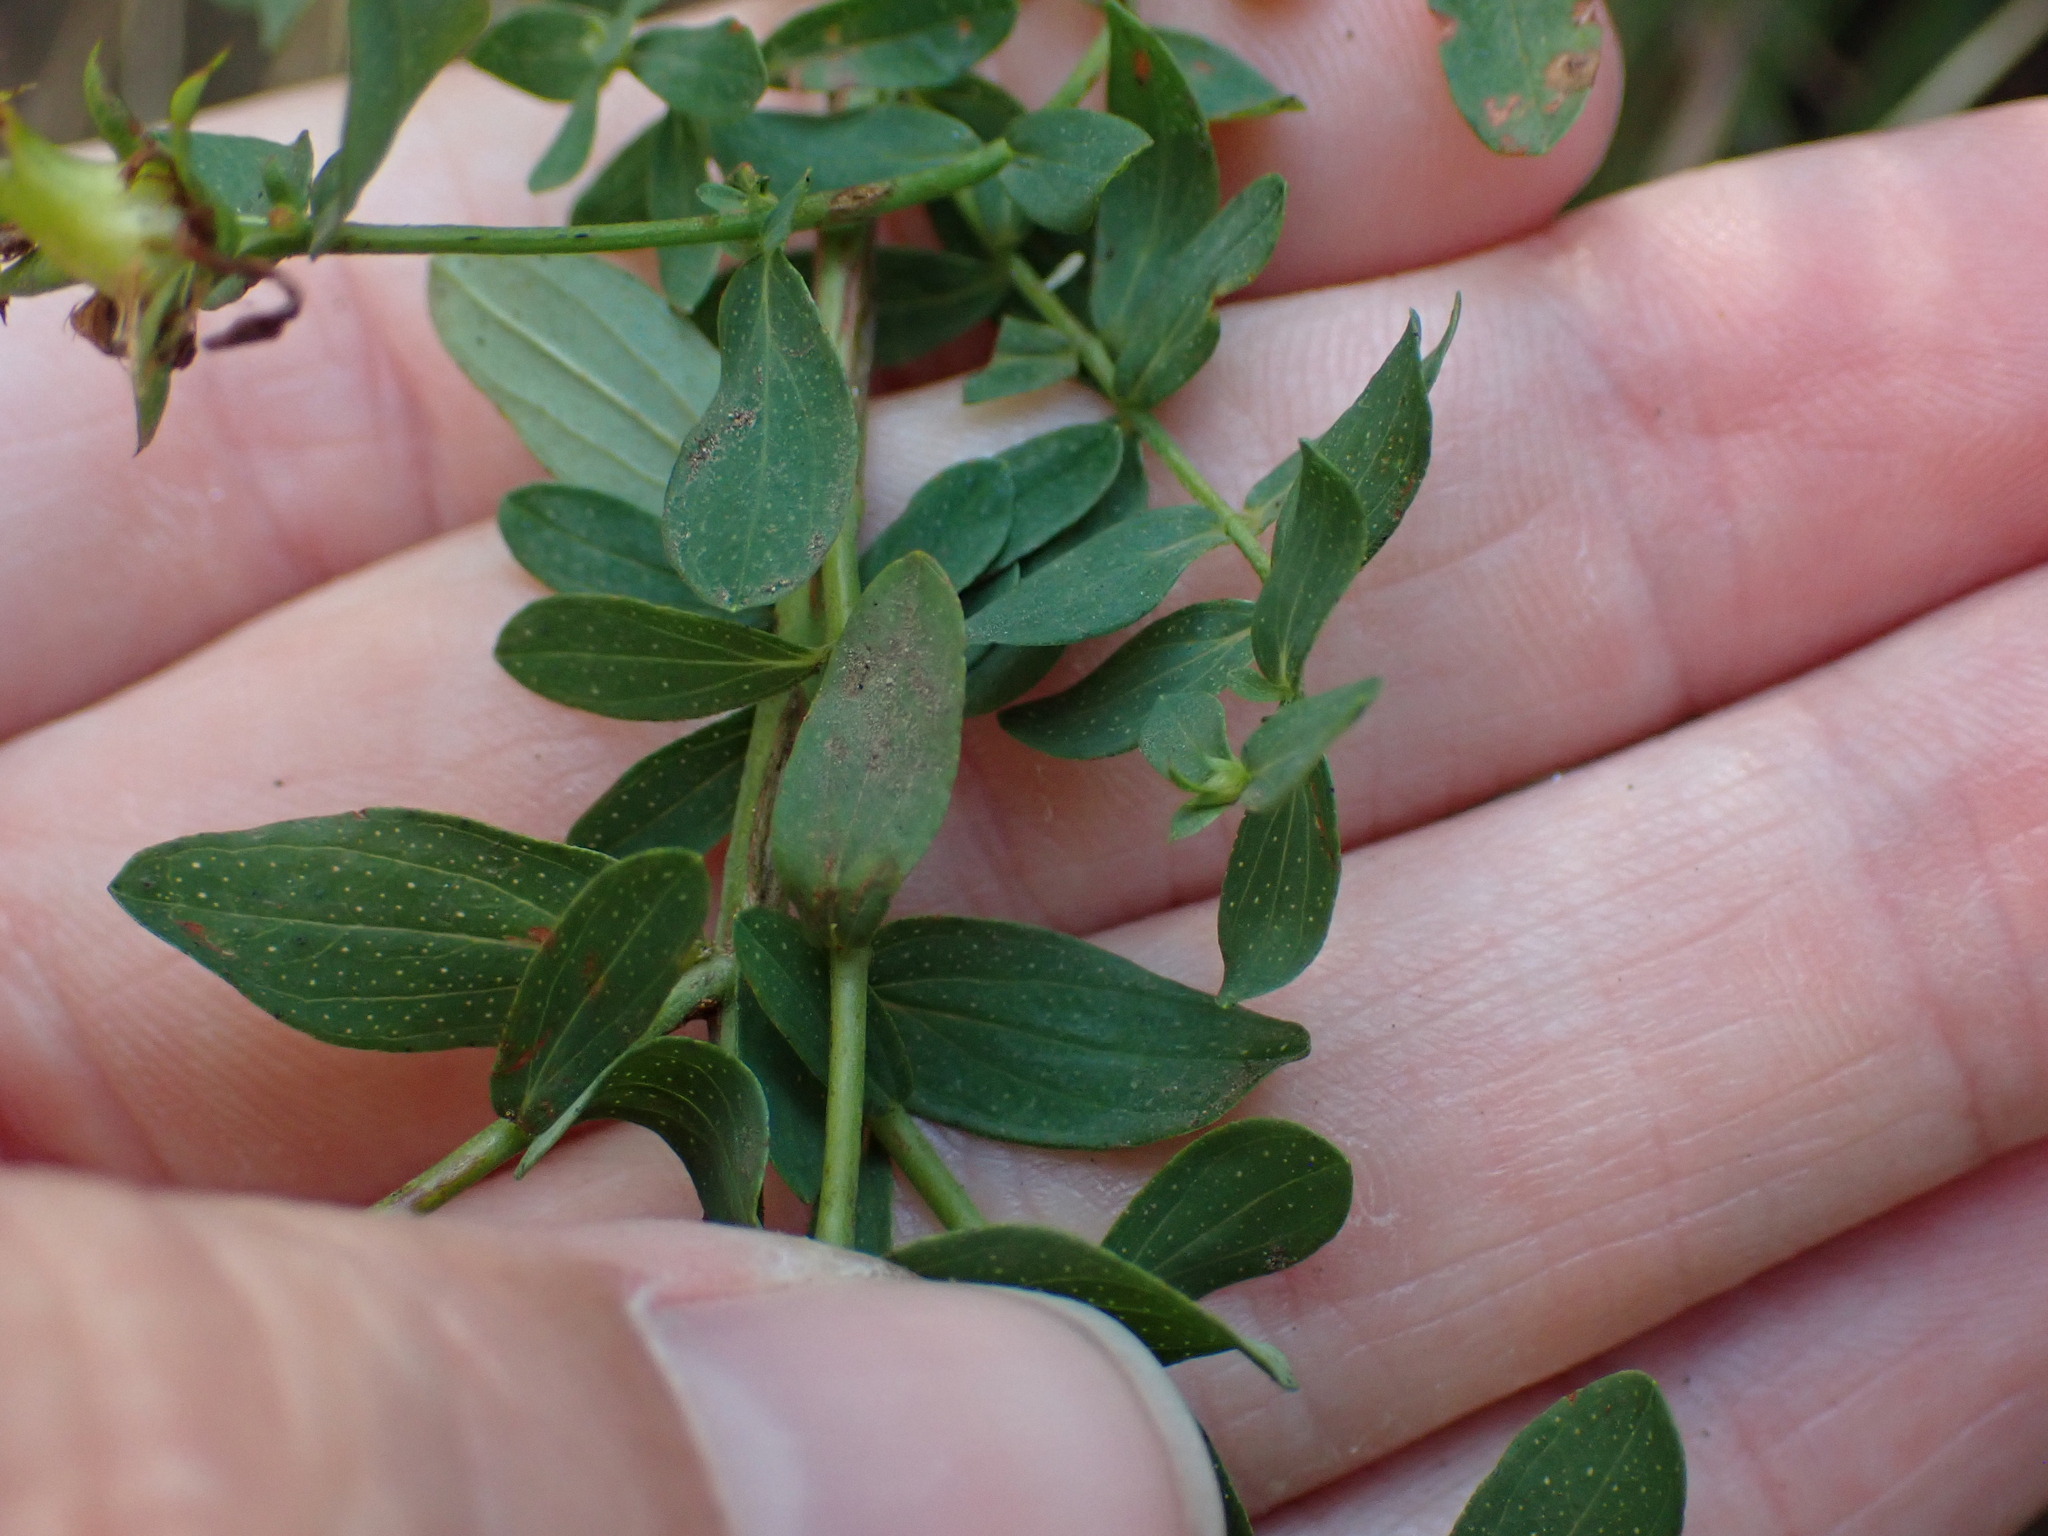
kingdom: Plantae
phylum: Tracheophyta
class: Magnoliopsida
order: Malpighiales
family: Hypericaceae
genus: Hypericum
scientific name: Hypericum perforatum
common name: Common st. johnswort
